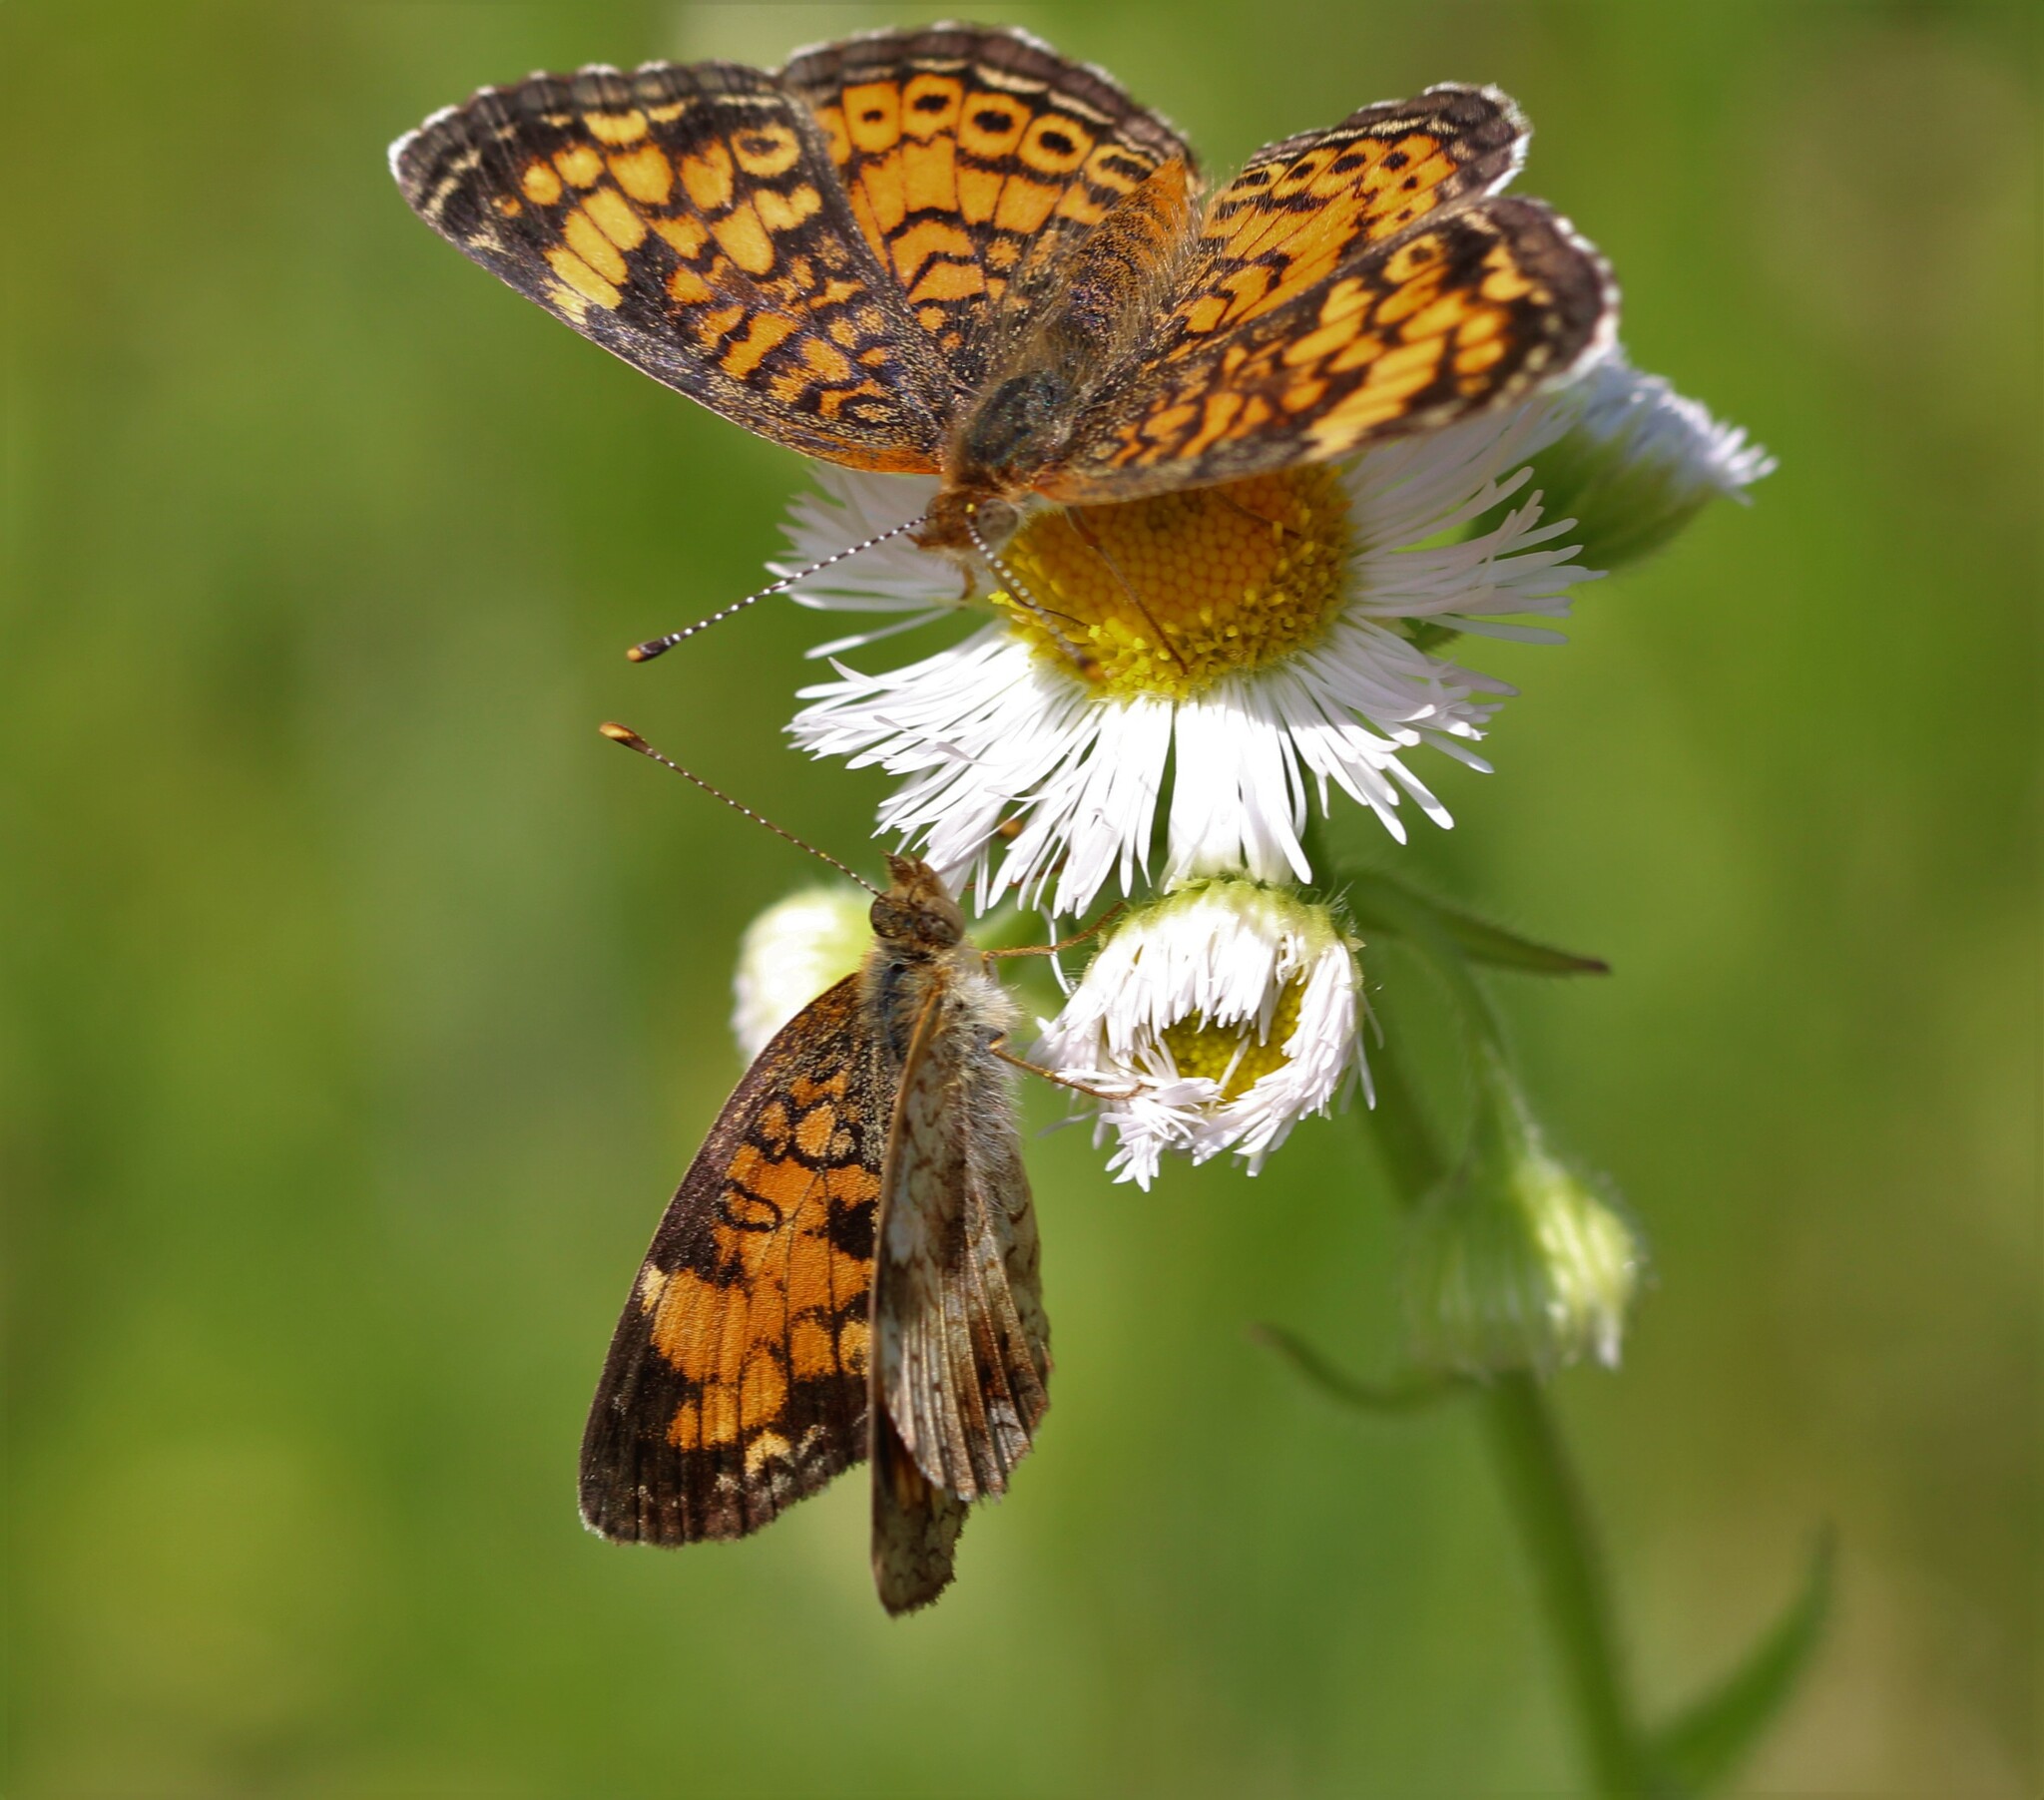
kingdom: Animalia
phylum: Arthropoda
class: Insecta
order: Lepidoptera
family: Nymphalidae
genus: Phyciodes
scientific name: Phyciodes tharos
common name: Pearl crescent
